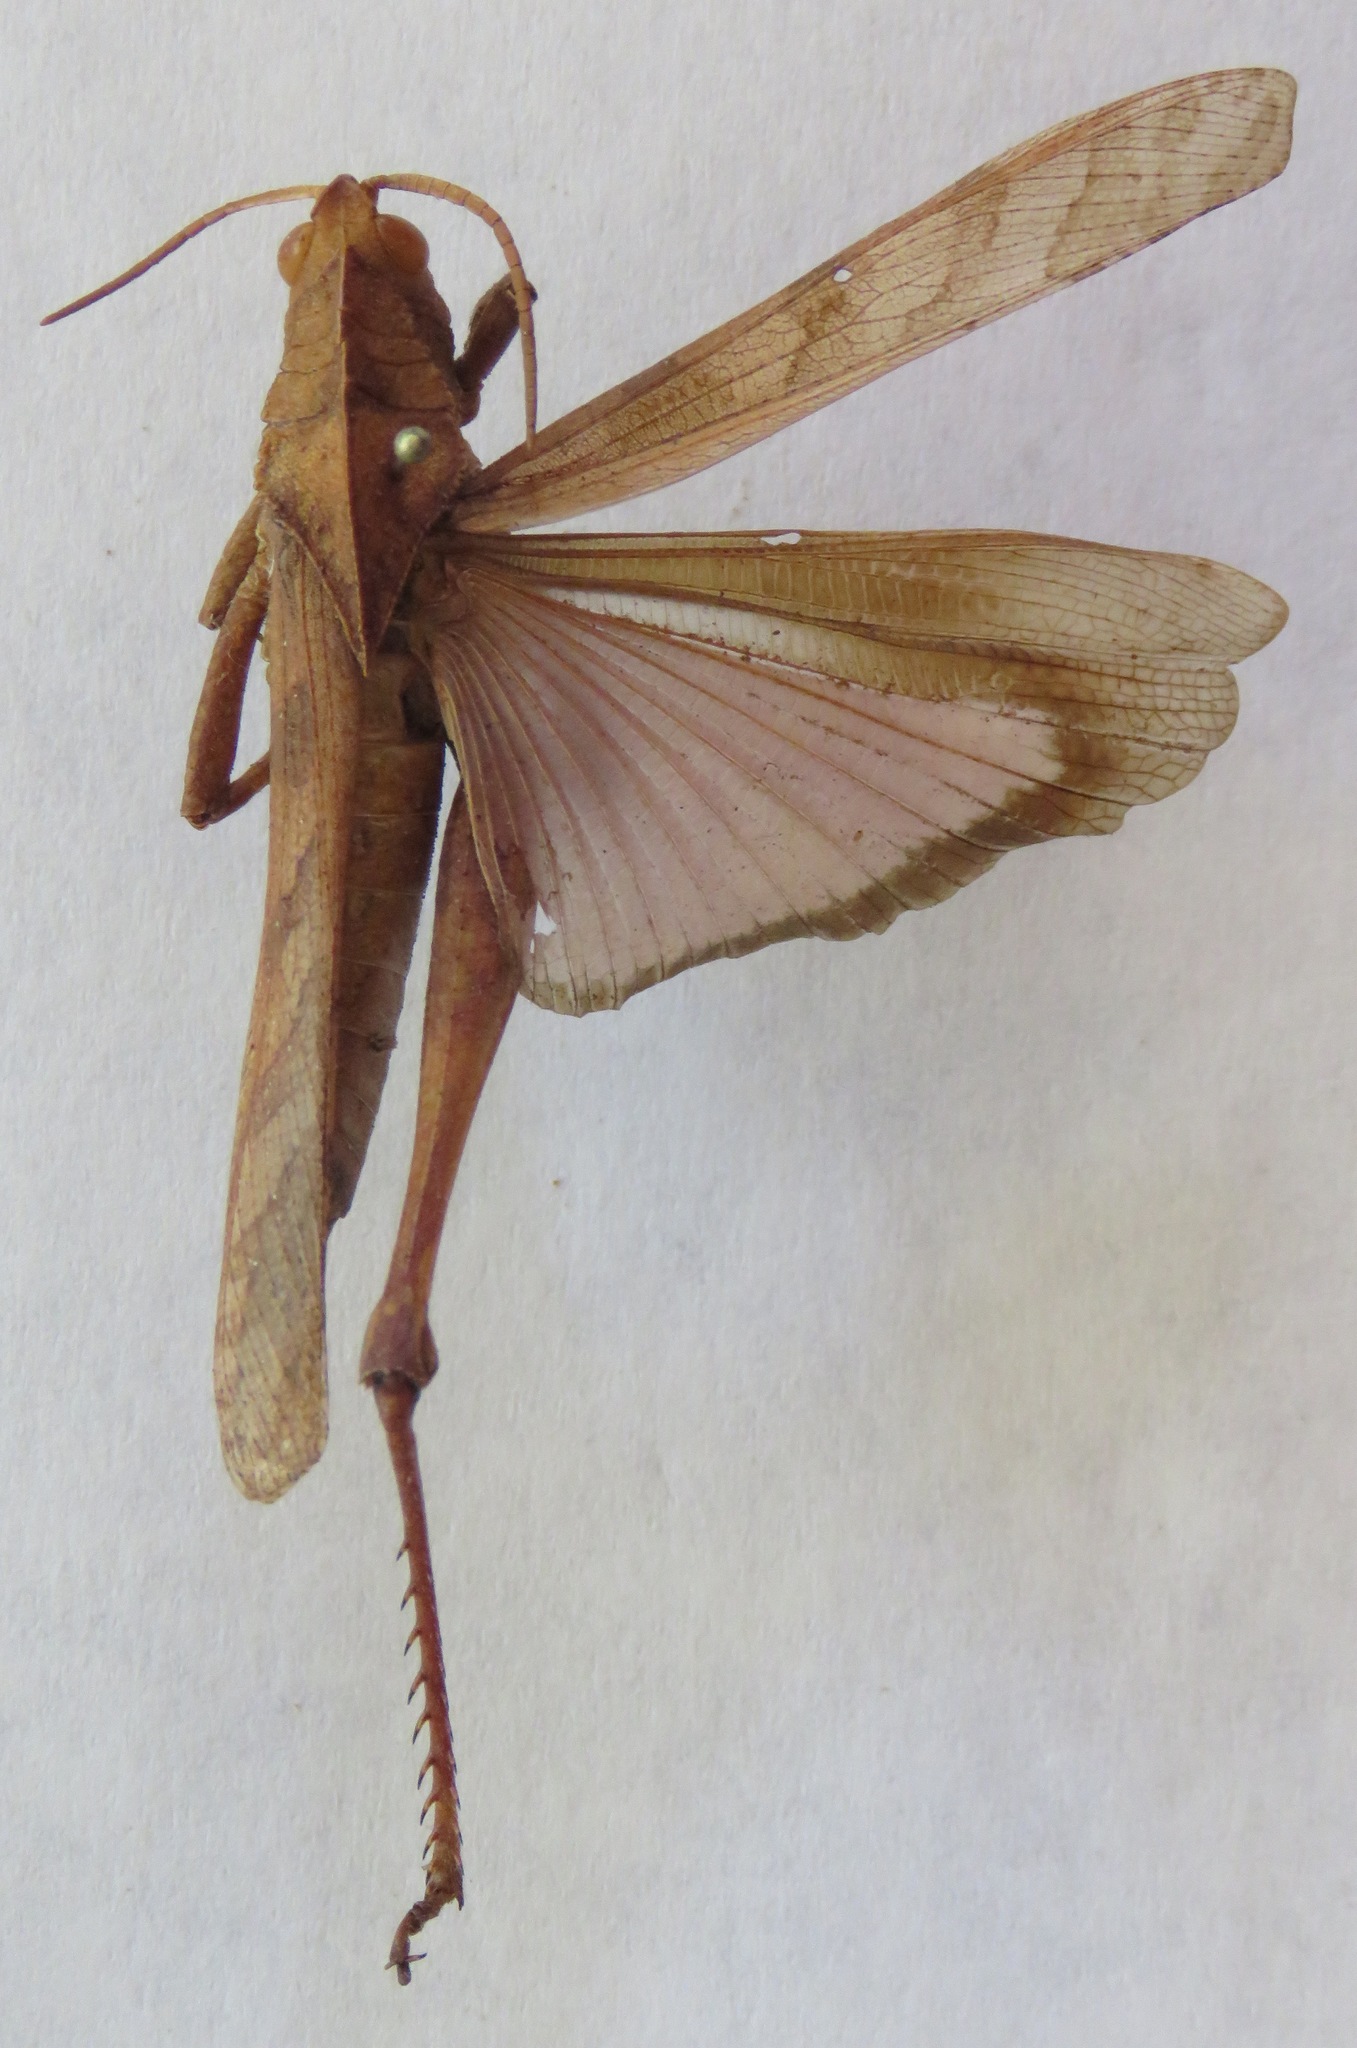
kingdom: Animalia
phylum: Arthropoda
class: Insecta
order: Orthoptera
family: Romaleidae
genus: Xyleus
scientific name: Xyleus discoideus
